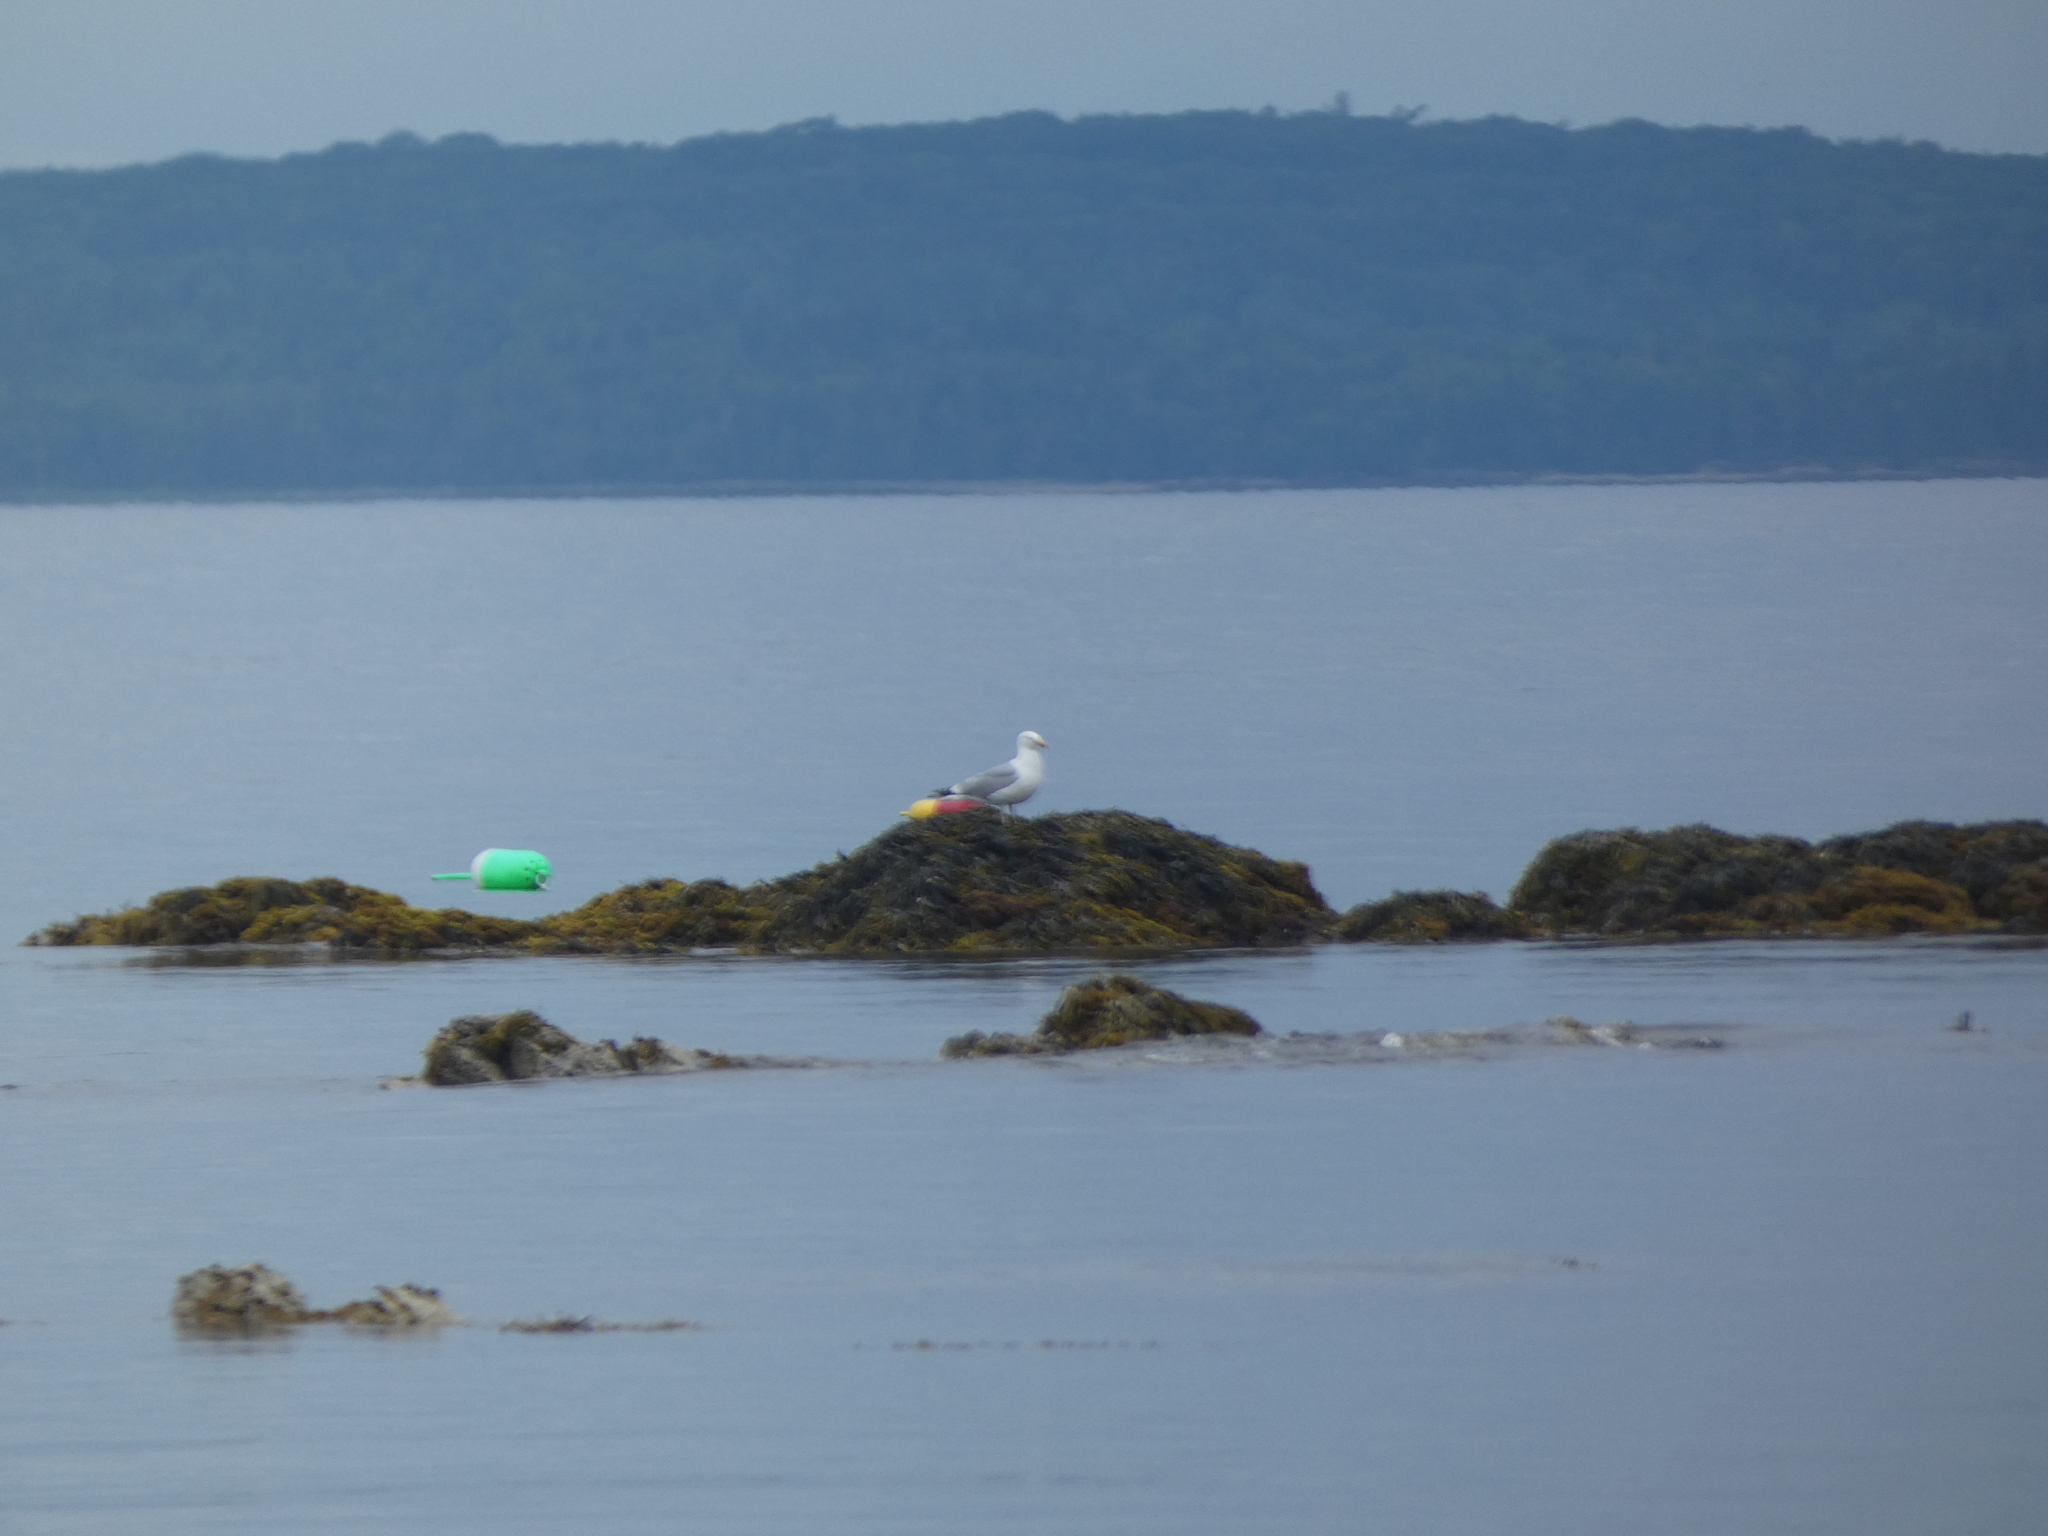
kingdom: Animalia
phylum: Chordata
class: Aves
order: Charadriiformes
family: Laridae
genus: Larus
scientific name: Larus argentatus
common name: Herring gull
